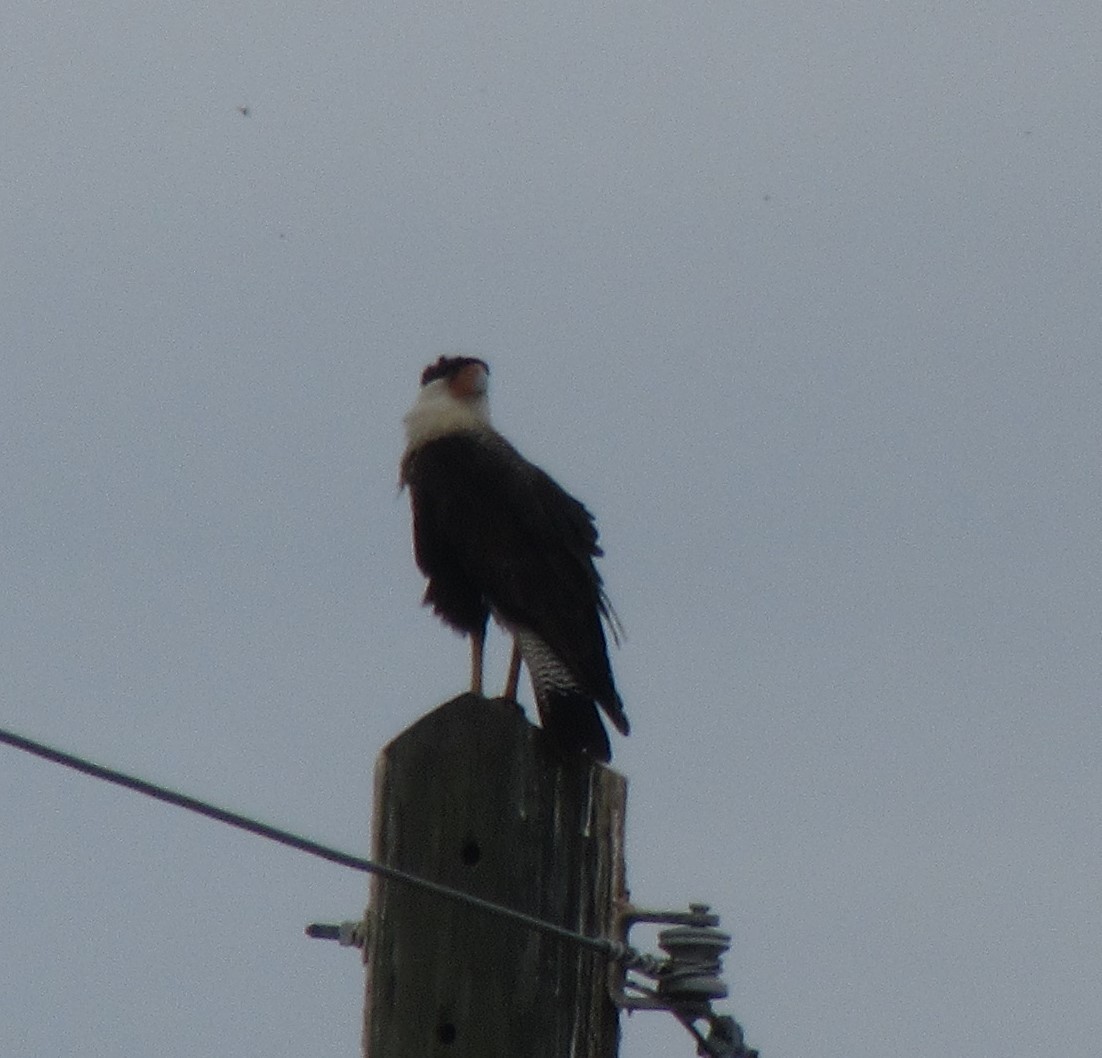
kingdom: Animalia
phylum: Chordata
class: Aves
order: Falconiformes
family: Falconidae
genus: Caracara
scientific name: Caracara plancus
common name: Southern caracara
